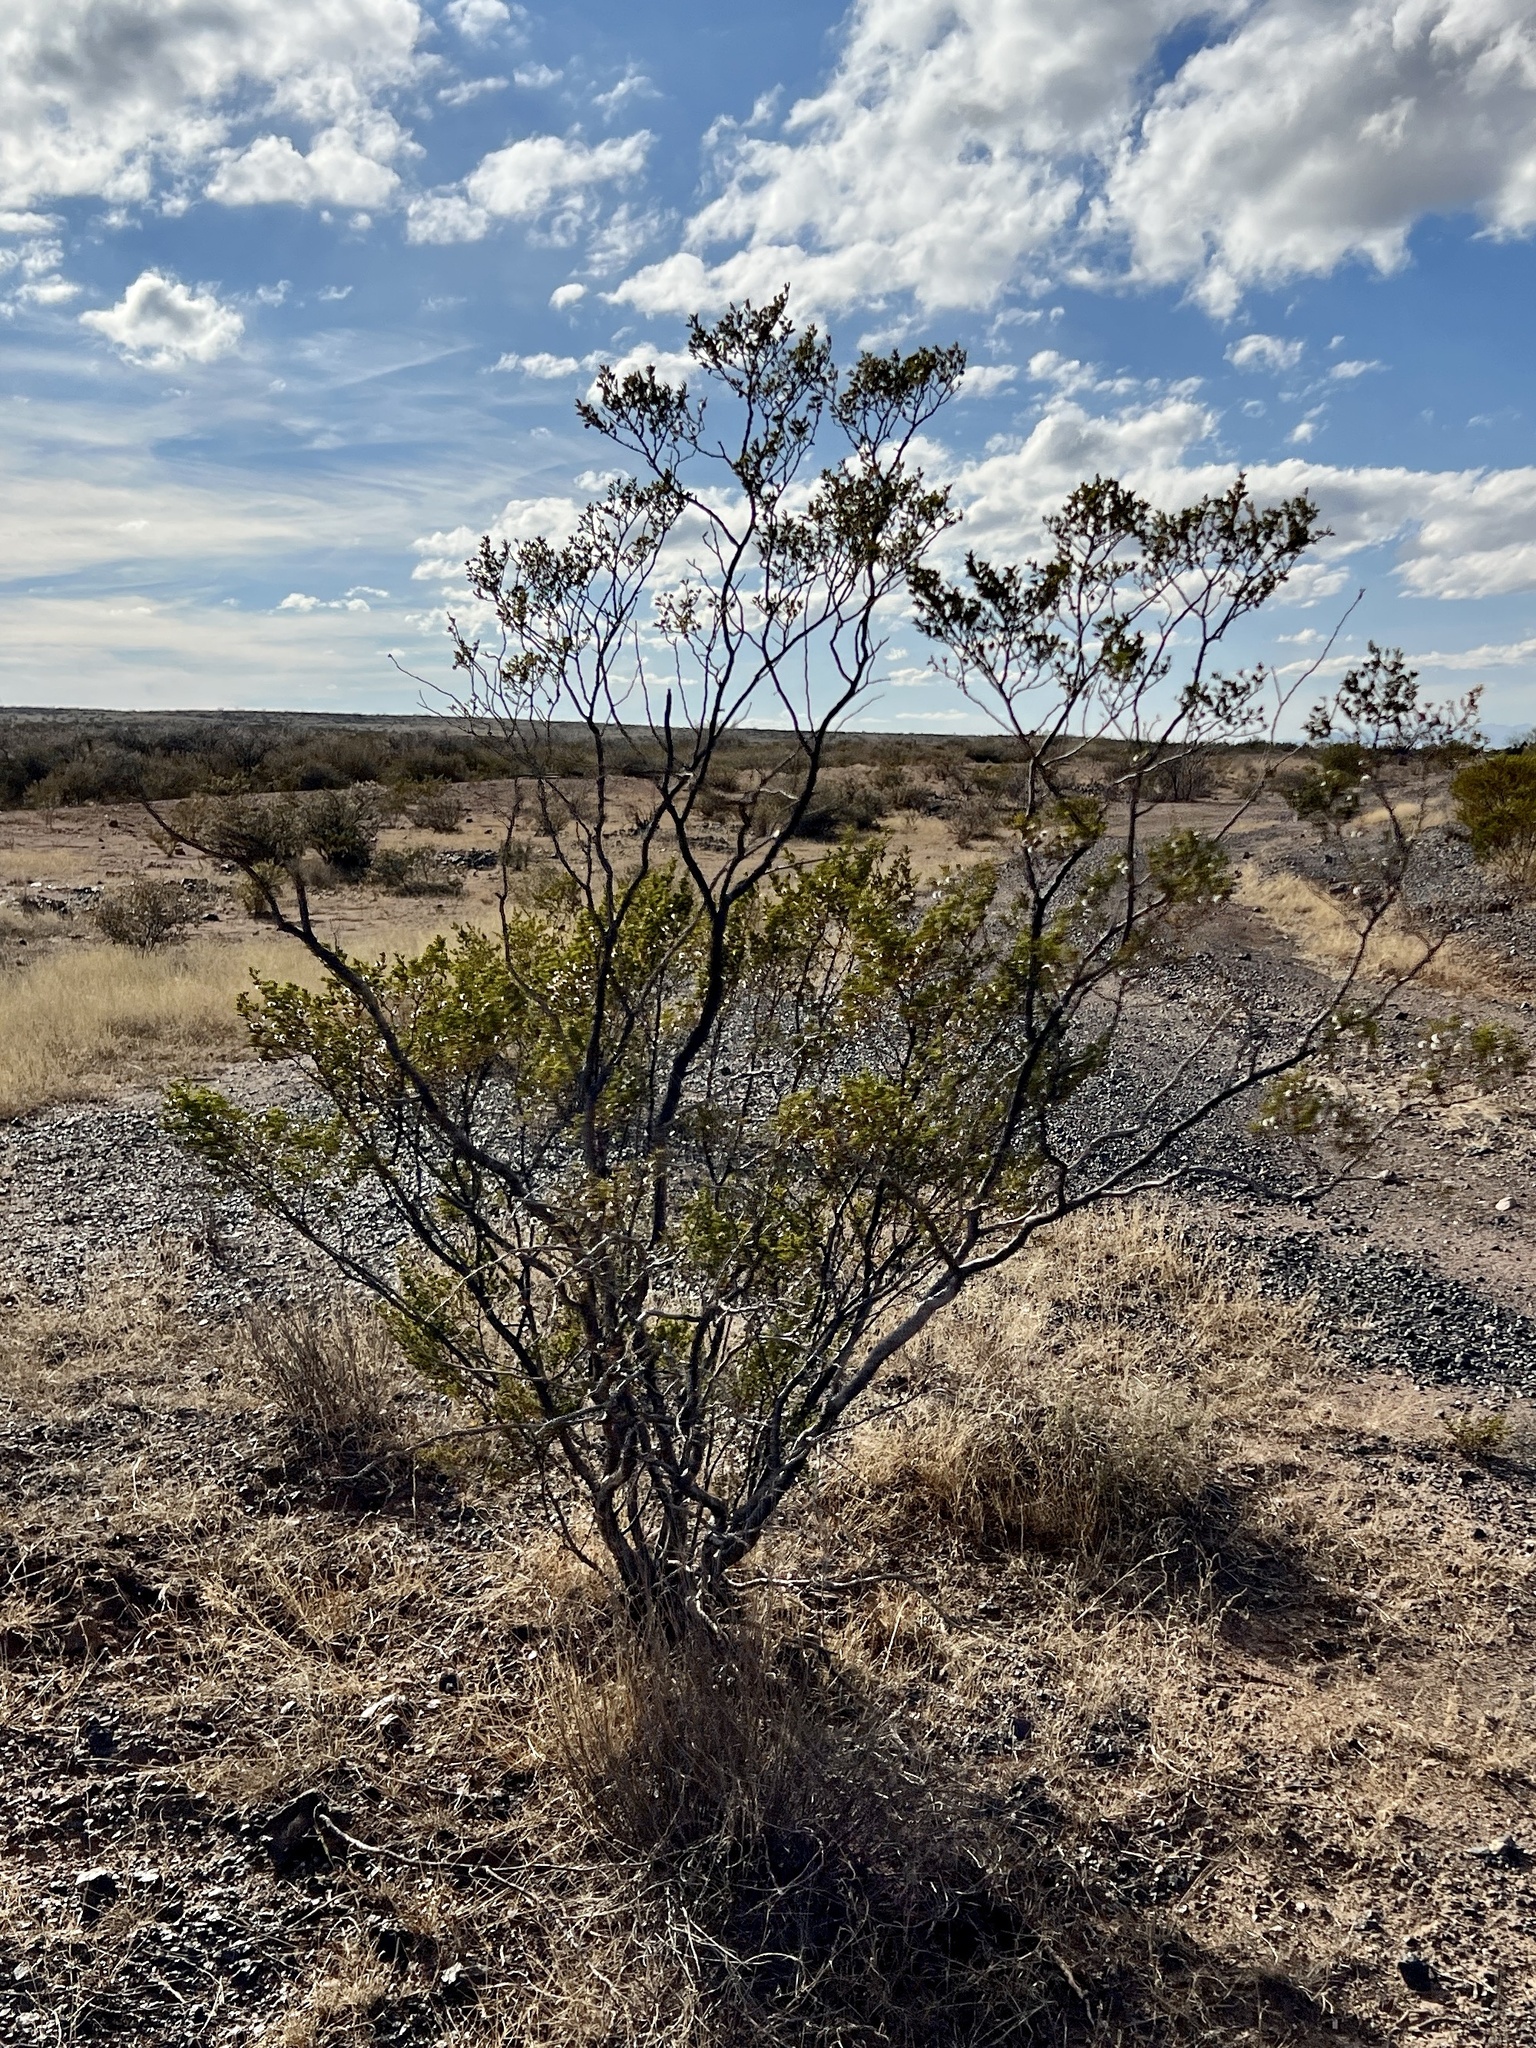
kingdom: Plantae
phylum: Tracheophyta
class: Magnoliopsida
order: Zygophyllales
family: Zygophyllaceae
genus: Larrea
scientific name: Larrea tridentata
